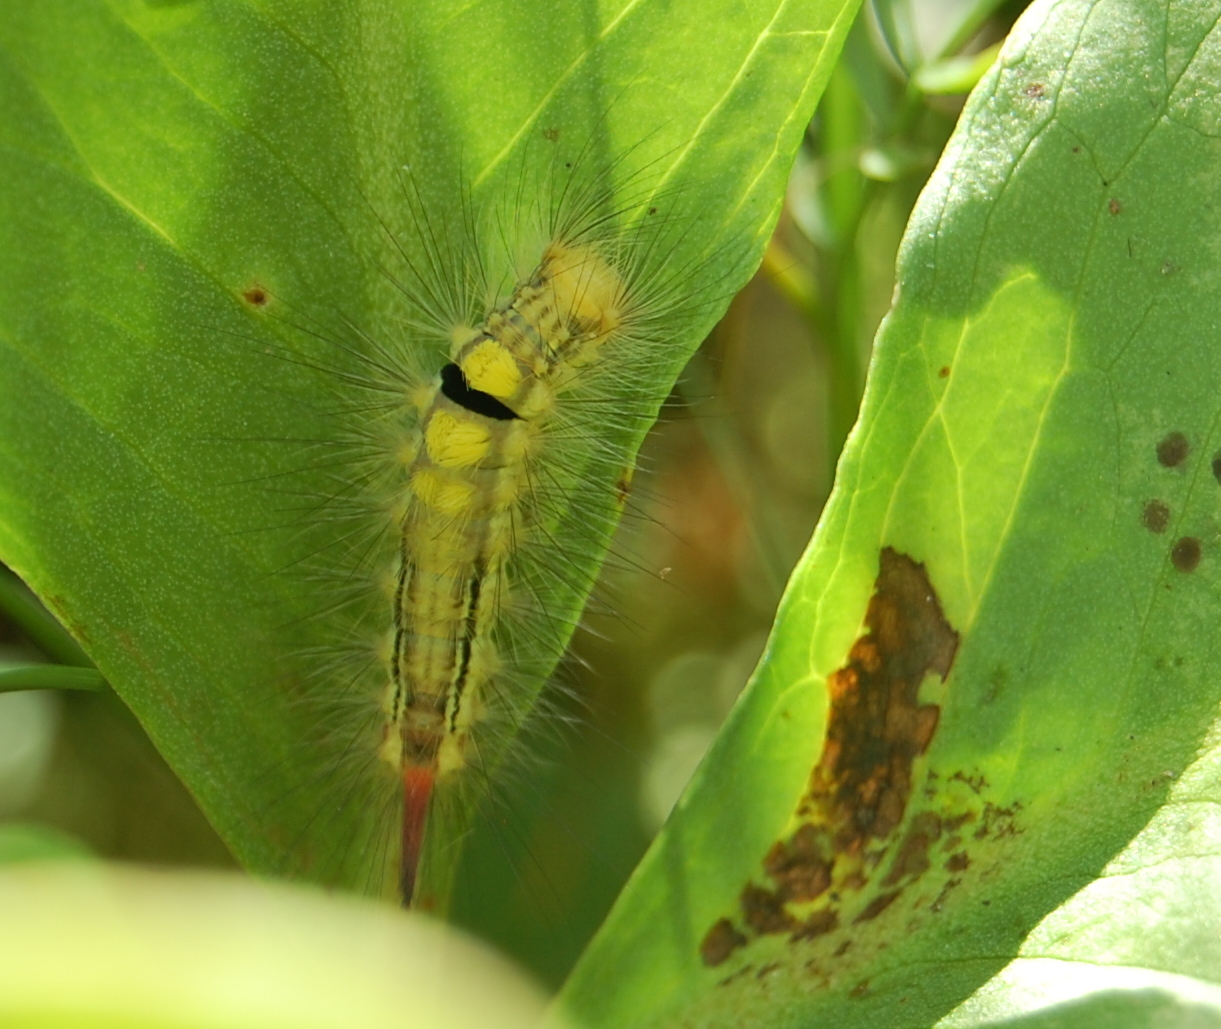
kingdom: Animalia
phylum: Arthropoda
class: Insecta
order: Lepidoptera
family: Erebidae
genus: Calliteara
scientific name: Calliteara pudibunda
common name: Pale tussock
